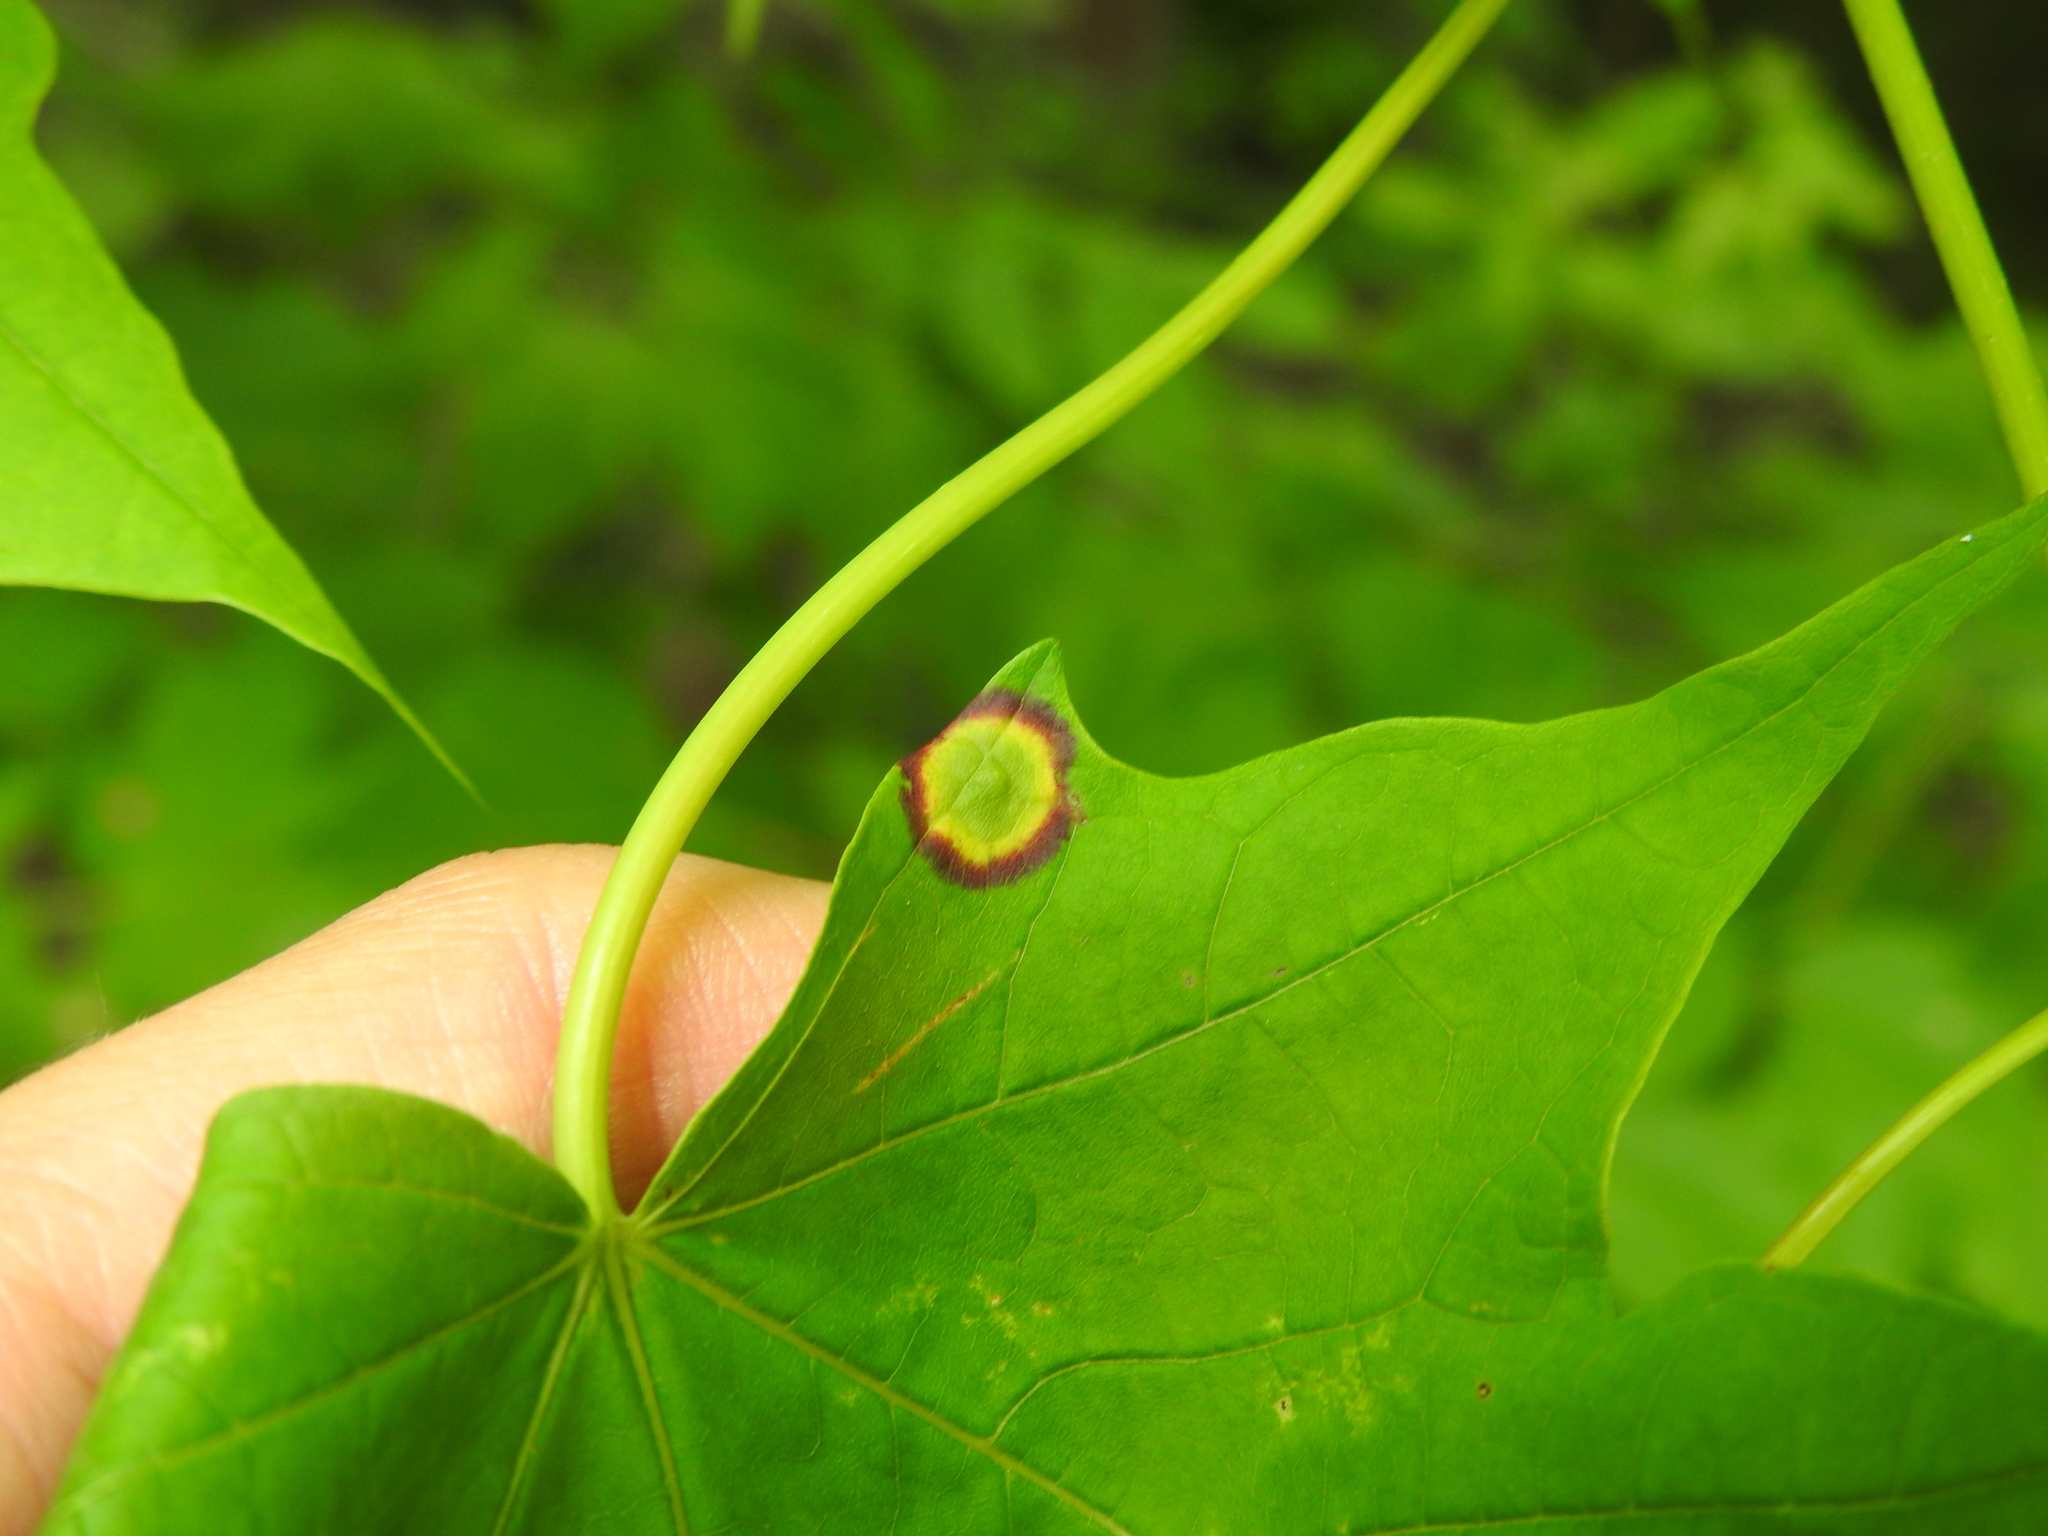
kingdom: Animalia
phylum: Arthropoda
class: Insecta
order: Diptera
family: Cecidomyiidae
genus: Acericecis
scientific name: Acericecis ocellaris
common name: Ocellate gall midge
